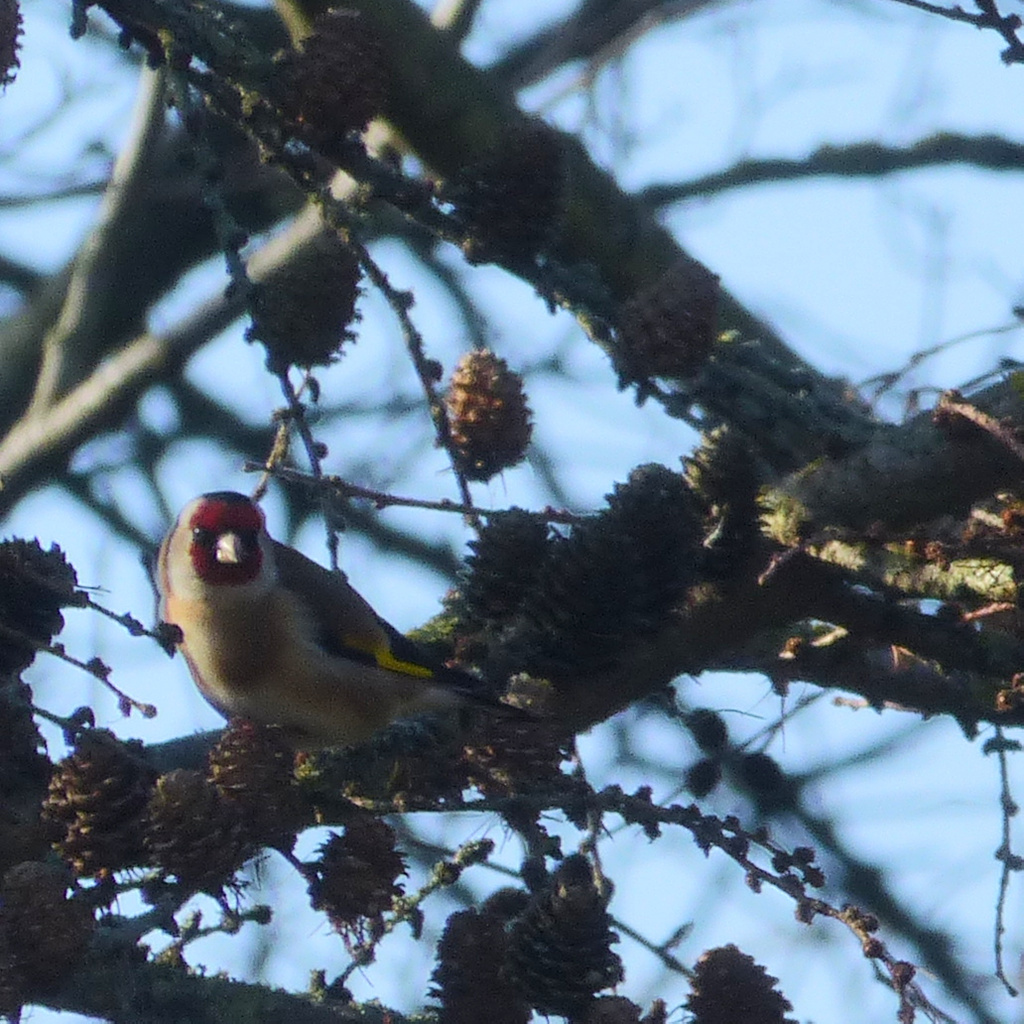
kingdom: Animalia
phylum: Chordata
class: Aves
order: Passeriformes
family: Fringillidae
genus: Carduelis
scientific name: Carduelis carduelis
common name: European goldfinch
